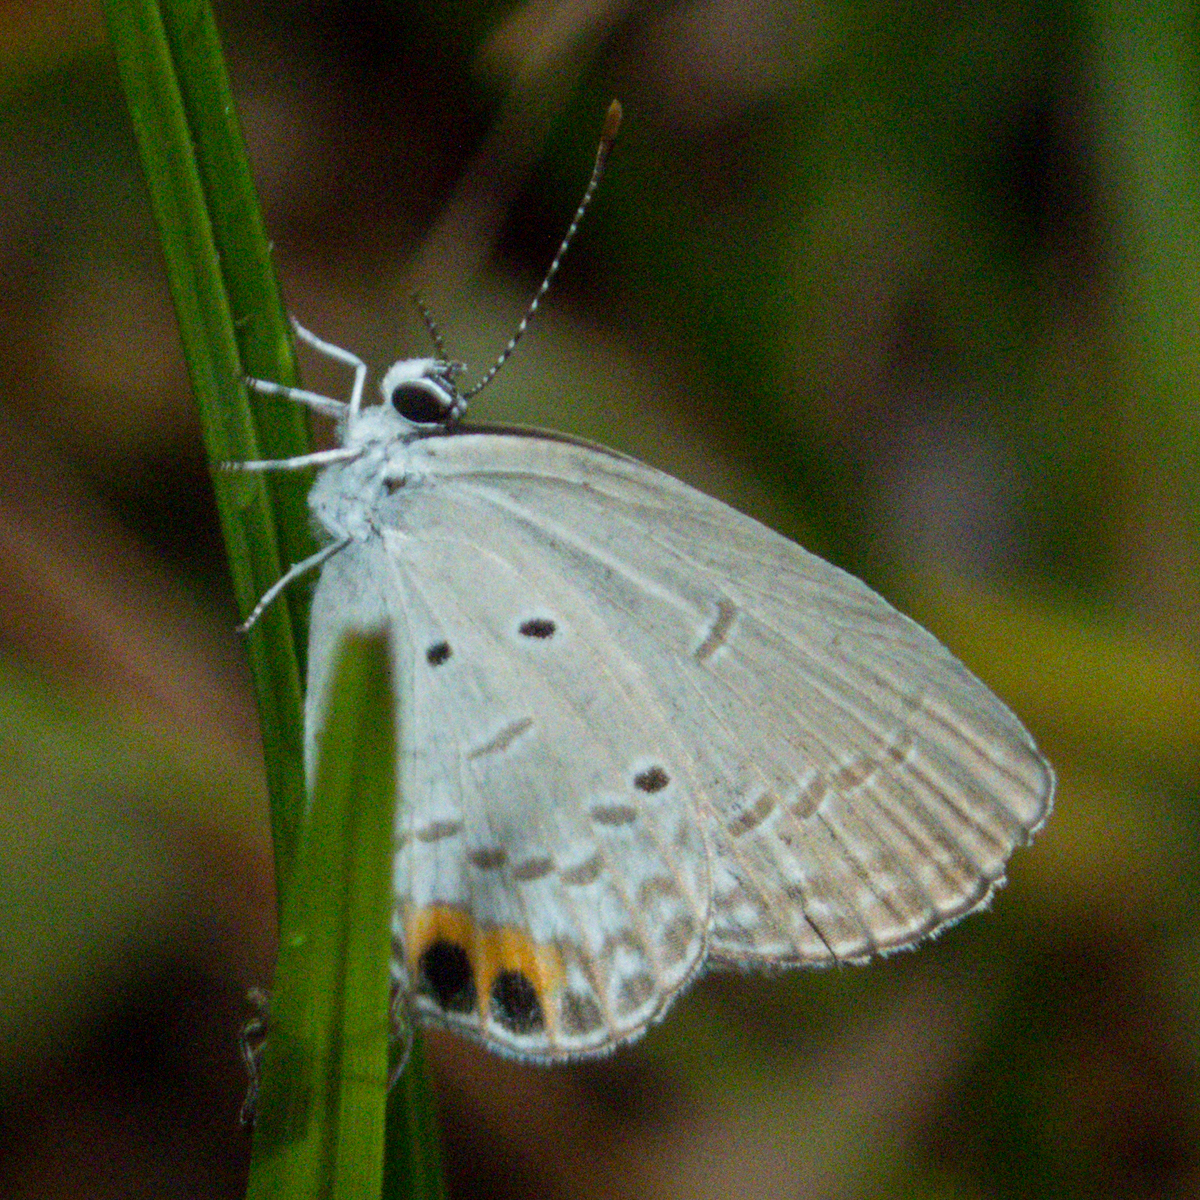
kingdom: Animalia
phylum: Arthropoda
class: Insecta
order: Lepidoptera
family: Lycaenidae
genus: Everes
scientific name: Everes lacturnus
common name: Orange-tipped pea-blue
